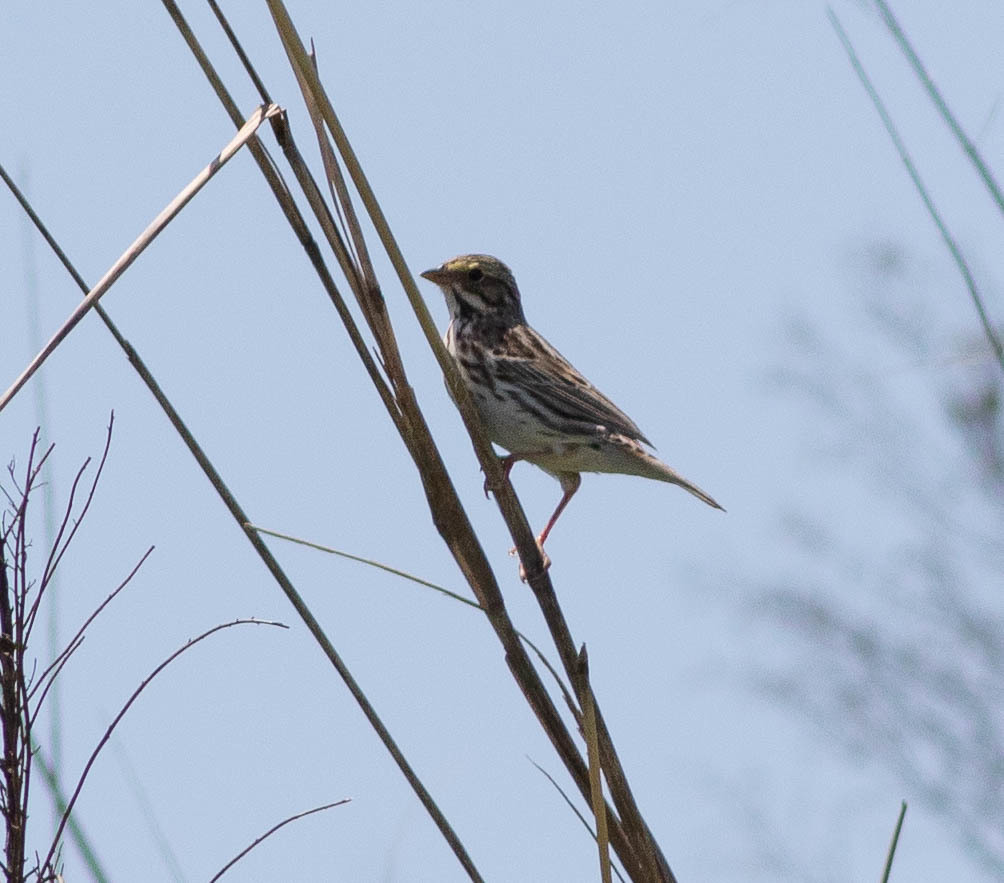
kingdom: Animalia
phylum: Chordata
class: Aves
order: Passeriformes
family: Passerellidae
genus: Passerculus
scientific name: Passerculus sandwichensis
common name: Savannah sparrow
